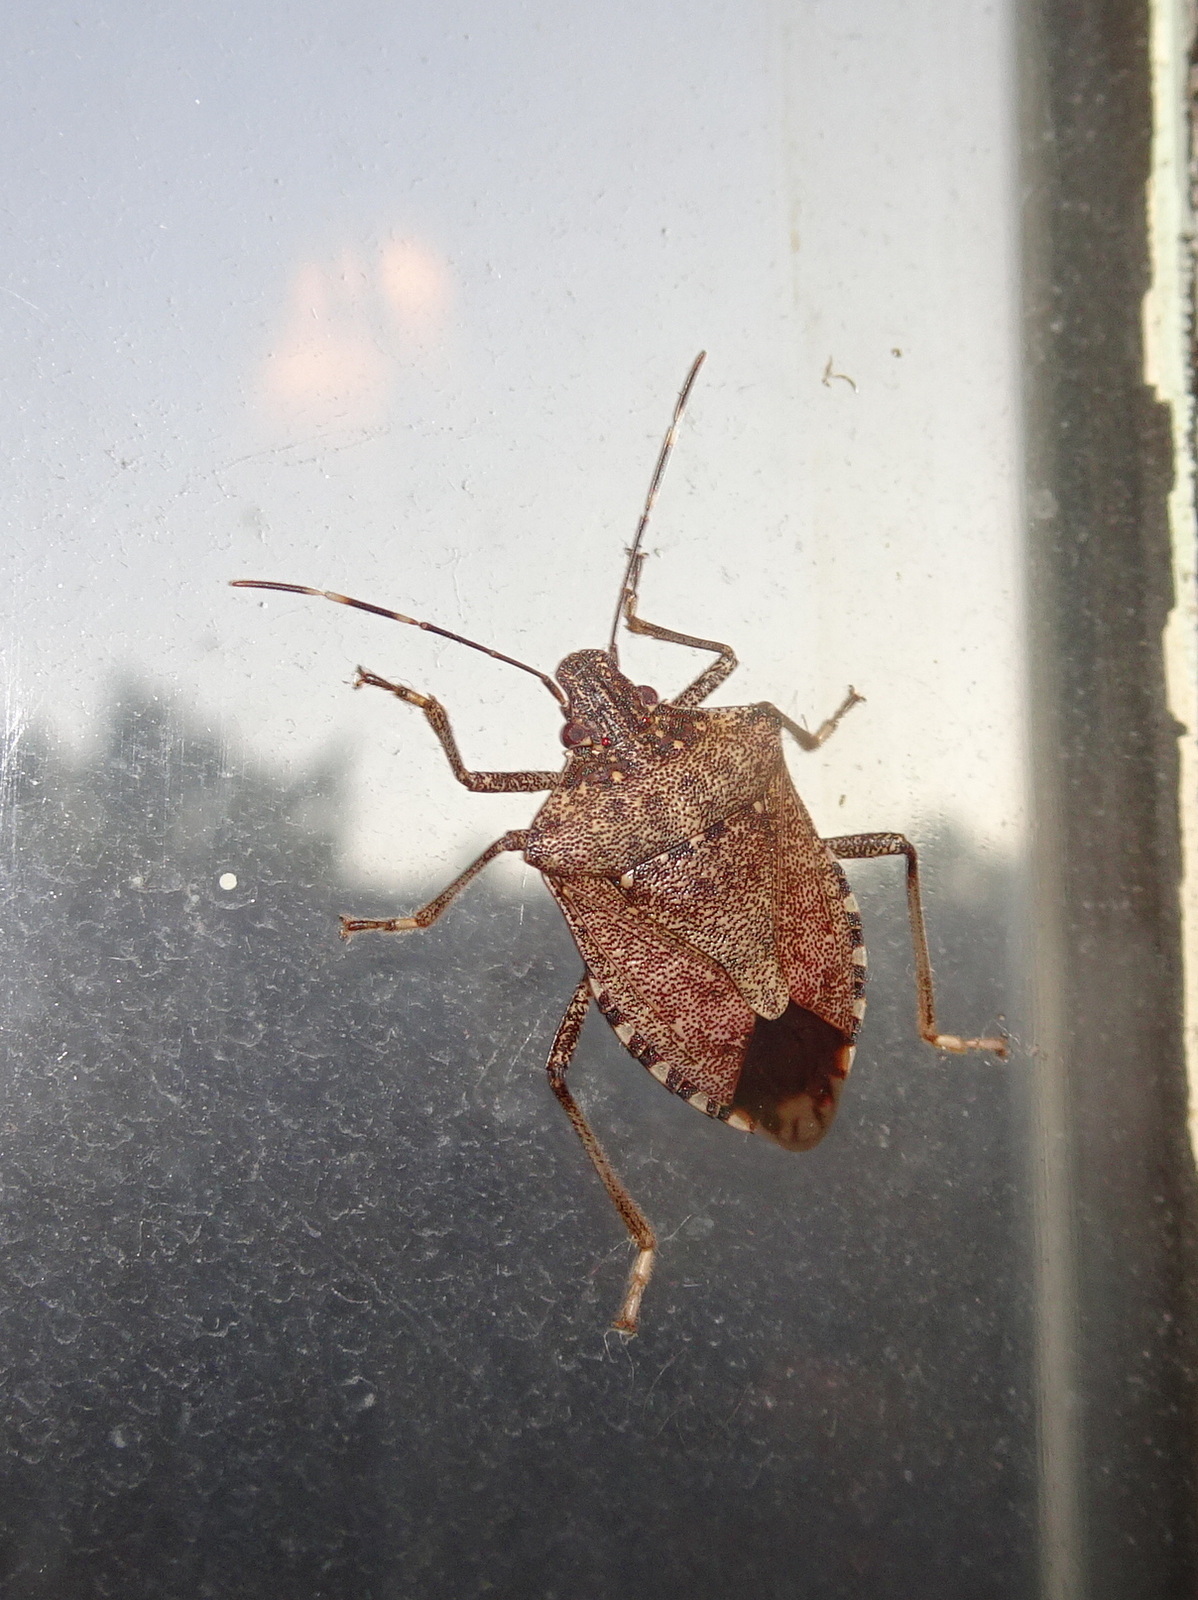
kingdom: Animalia
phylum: Arthropoda
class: Insecta
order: Hemiptera
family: Pentatomidae
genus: Halyomorpha
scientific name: Halyomorpha halys
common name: Brown marmorated stink bug
